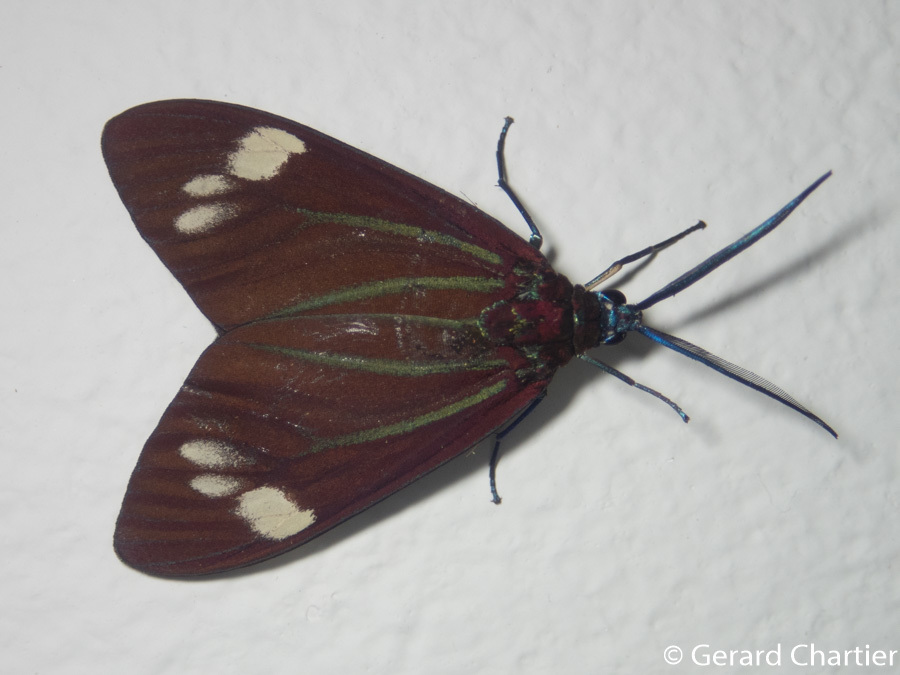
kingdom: Animalia
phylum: Arthropoda
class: Insecta
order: Lepidoptera
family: Zygaenidae
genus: Cyclosia
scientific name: Cyclosia papilionaris
